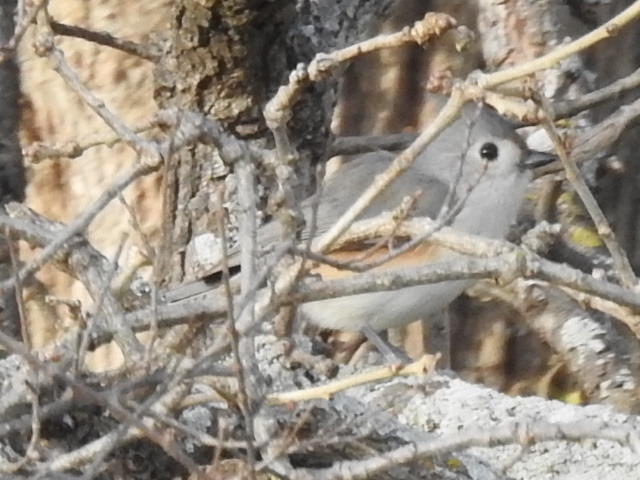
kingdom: Animalia
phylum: Chordata
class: Aves
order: Passeriformes
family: Paridae
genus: Baeolophus
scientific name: Baeolophus bicolor
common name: Tufted titmouse
